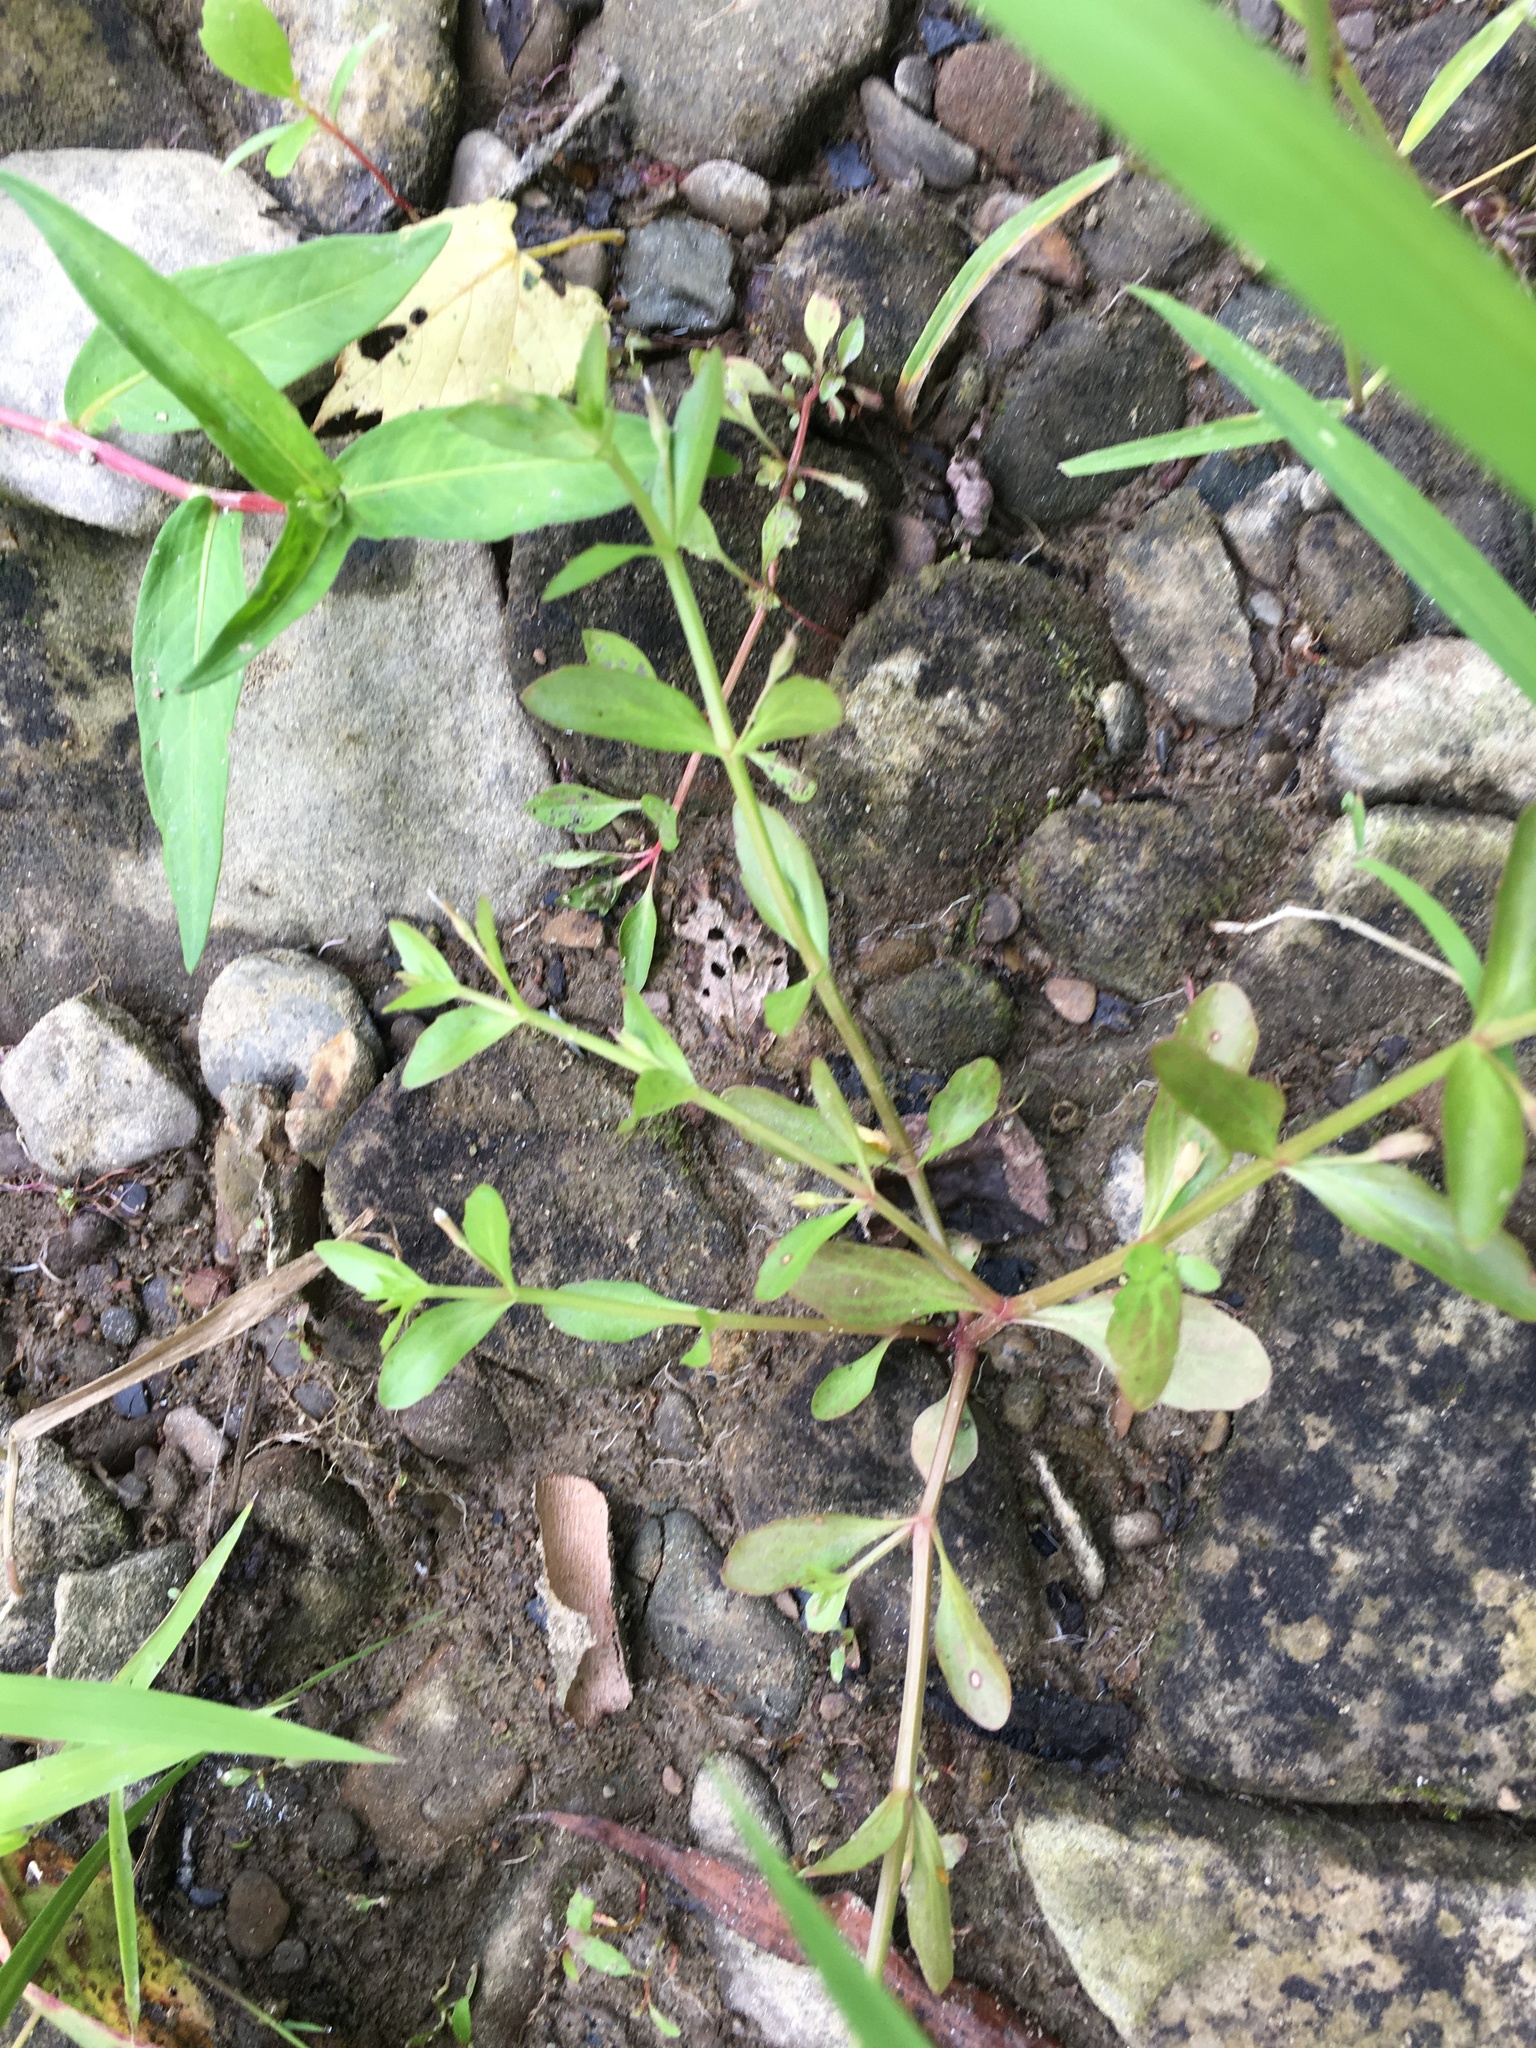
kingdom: Plantae
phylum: Tracheophyta
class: Magnoliopsida
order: Lamiales
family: Linderniaceae
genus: Lindernia
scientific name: Lindernia dubia
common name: Annual false pimpernel
